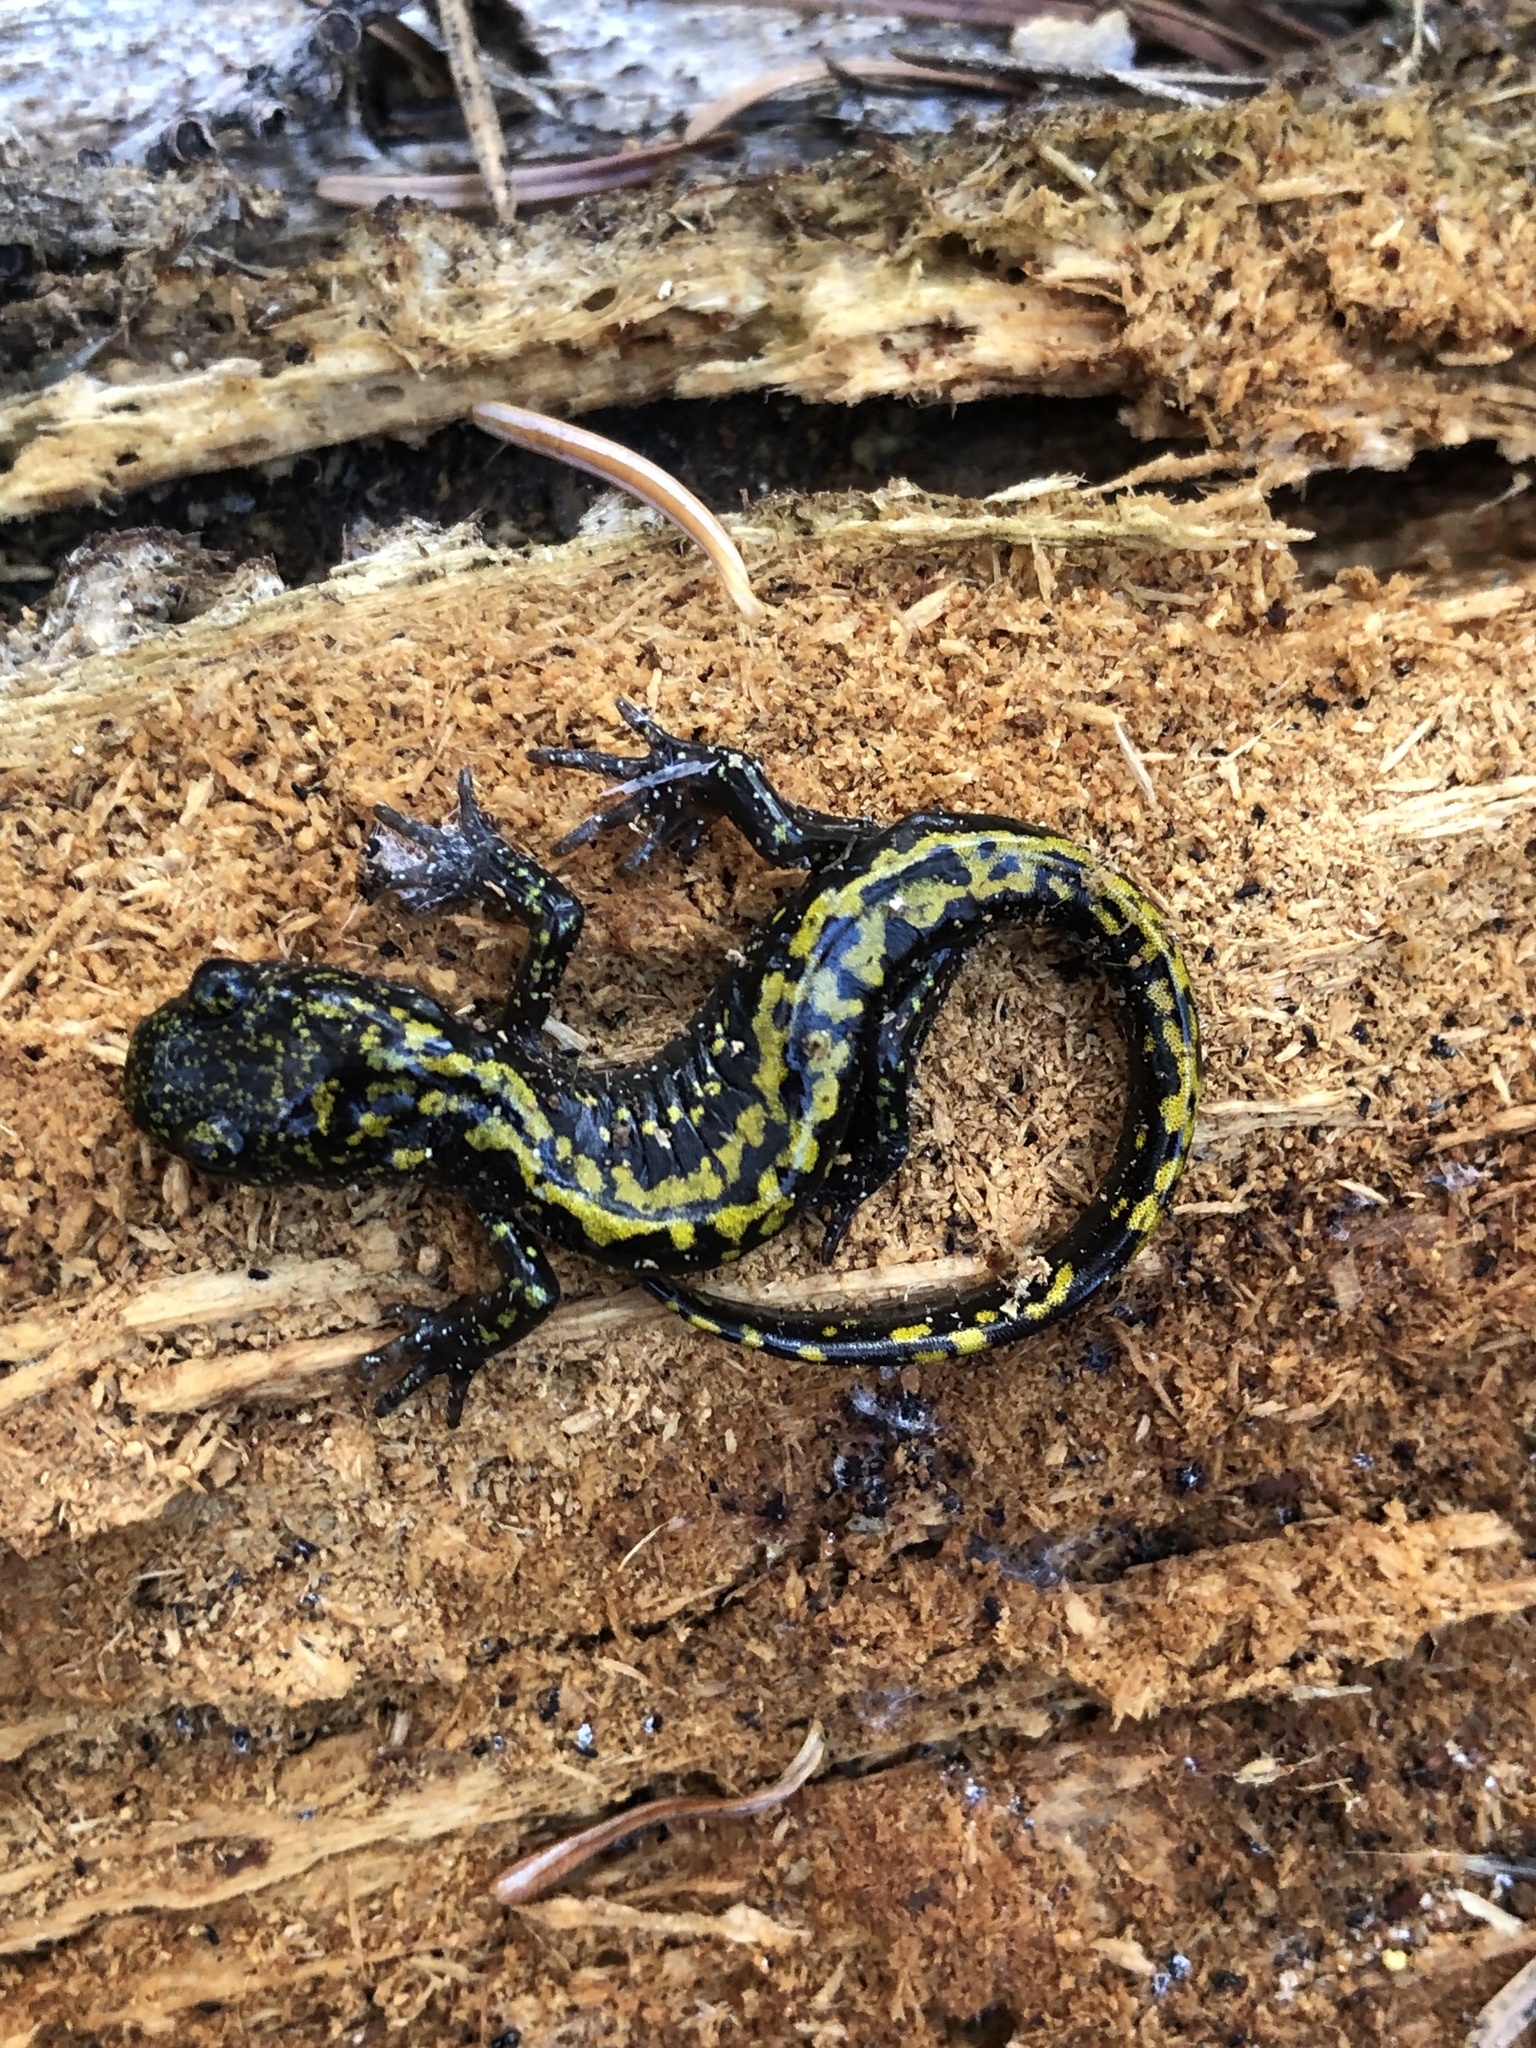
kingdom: Animalia
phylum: Chordata
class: Amphibia
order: Caudata
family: Ambystomatidae
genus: Ambystoma
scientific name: Ambystoma macrodactylum
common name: Long-toed salamander
